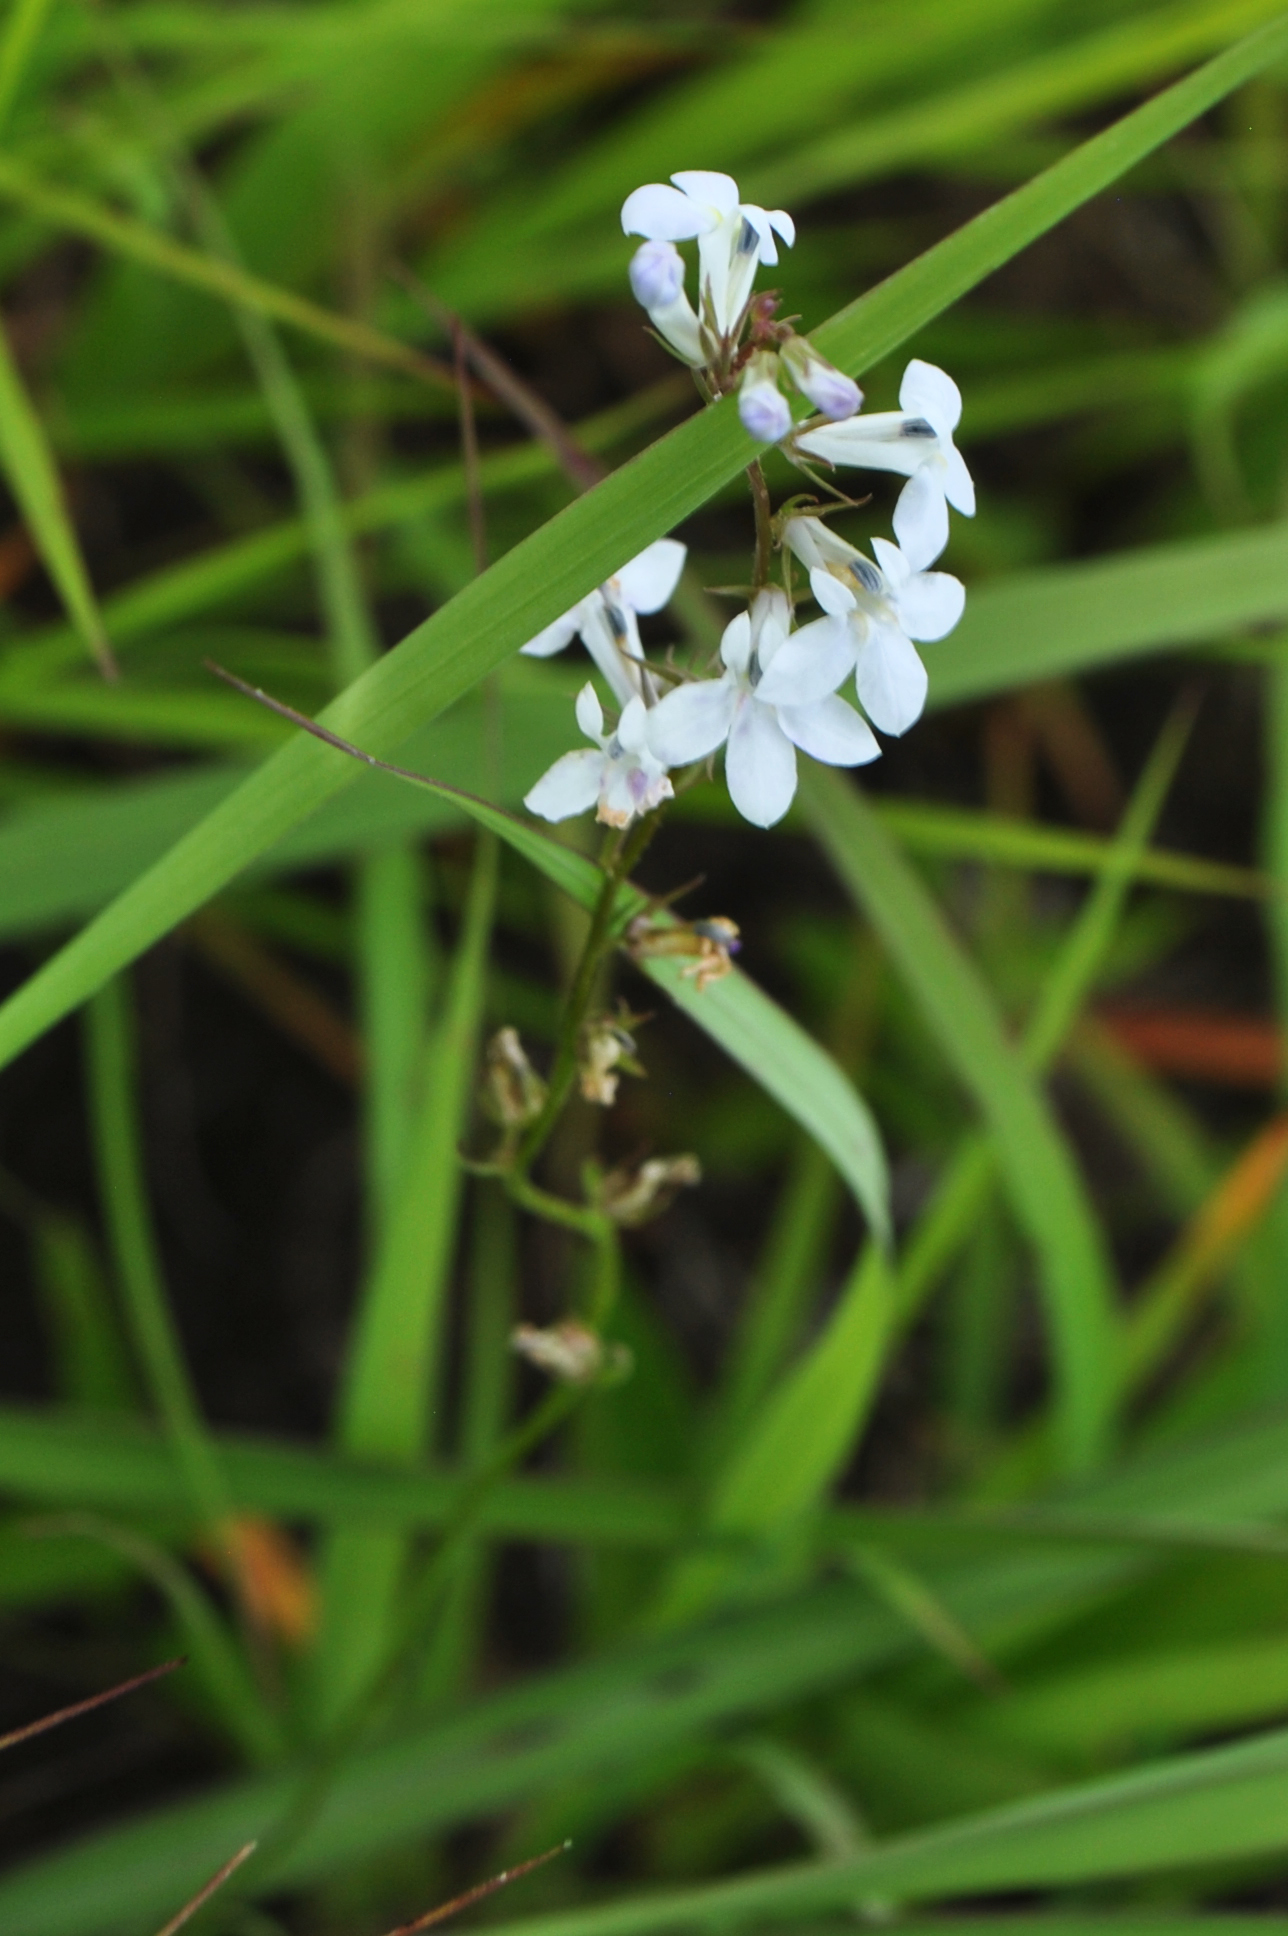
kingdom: Plantae
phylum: Tracheophyta
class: Magnoliopsida
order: Asterales
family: Campanulaceae
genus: Lobelia
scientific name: Lobelia spicata
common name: Pale-spike lobelia
